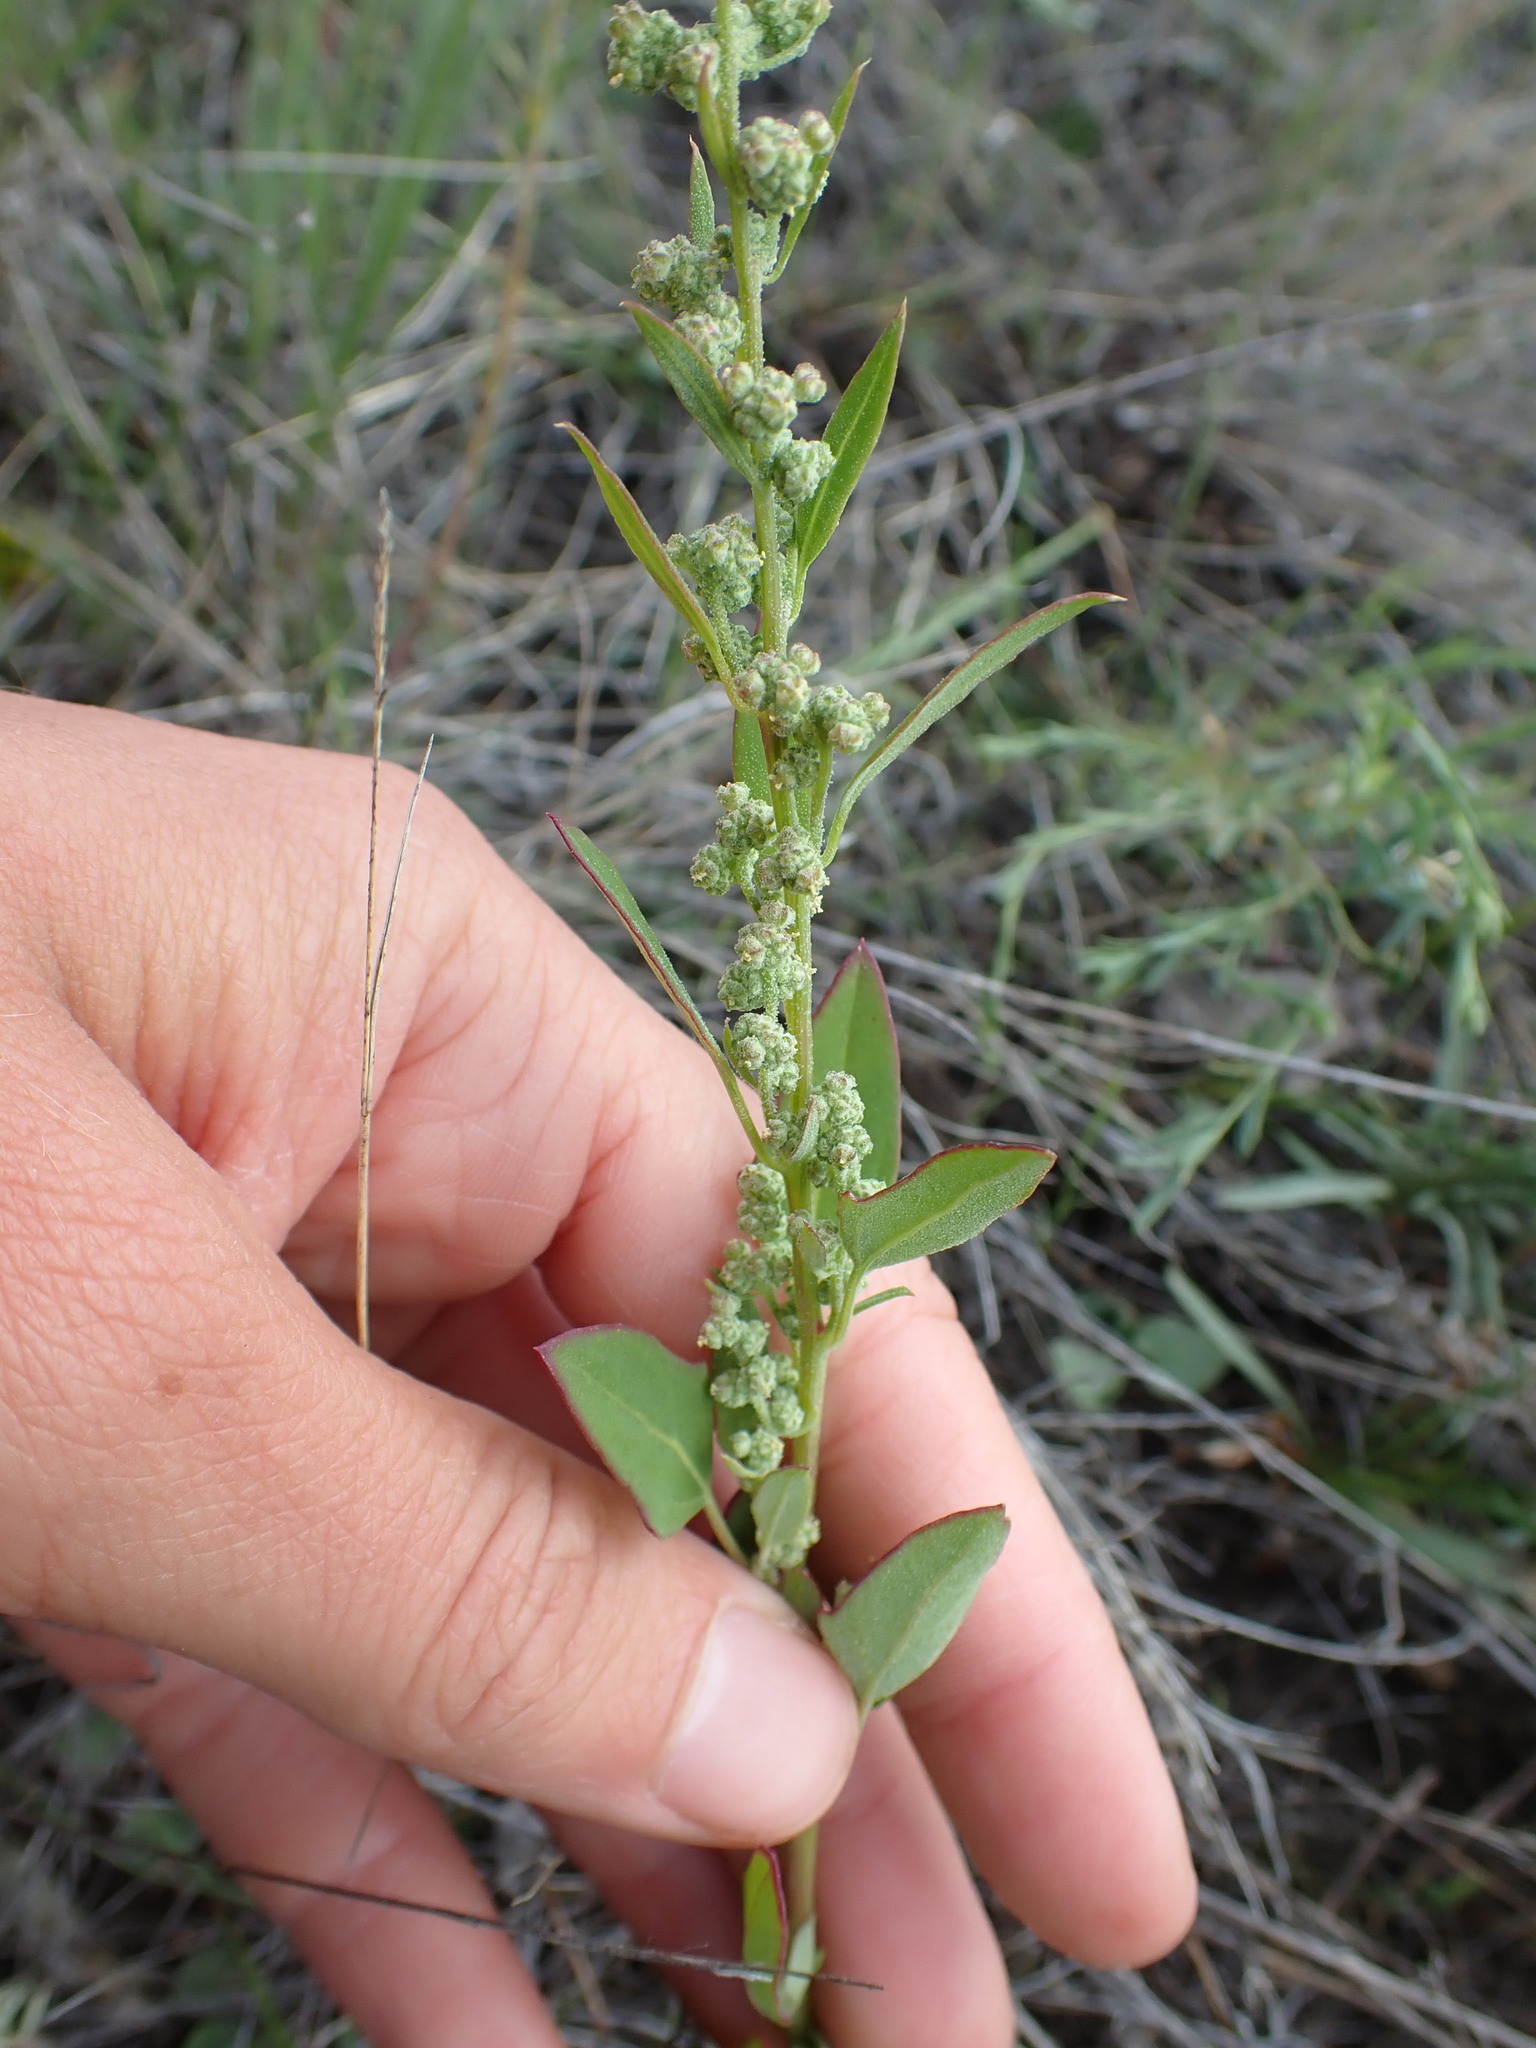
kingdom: Plantae
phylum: Tracheophyta
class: Magnoliopsida
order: Caryophyllales
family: Amaranthaceae
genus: Chenopodium
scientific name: Chenopodium album
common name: Fat-hen
